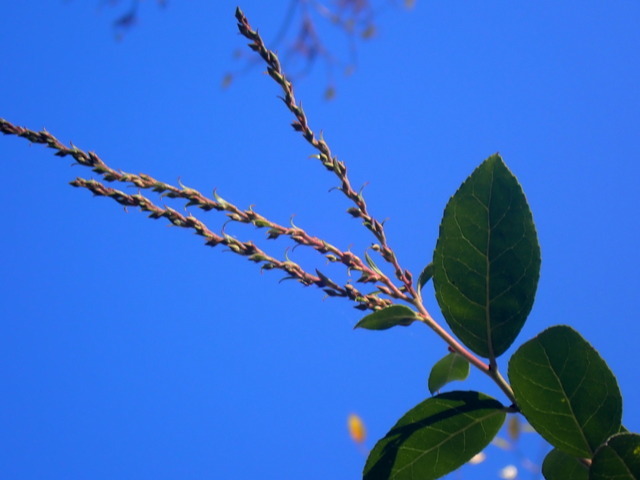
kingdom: Plantae
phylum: Tracheophyta
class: Magnoliopsida
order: Ericales
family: Ericaceae
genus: Eubotrys
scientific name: Eubotrys racemosa
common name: Fetterbush
